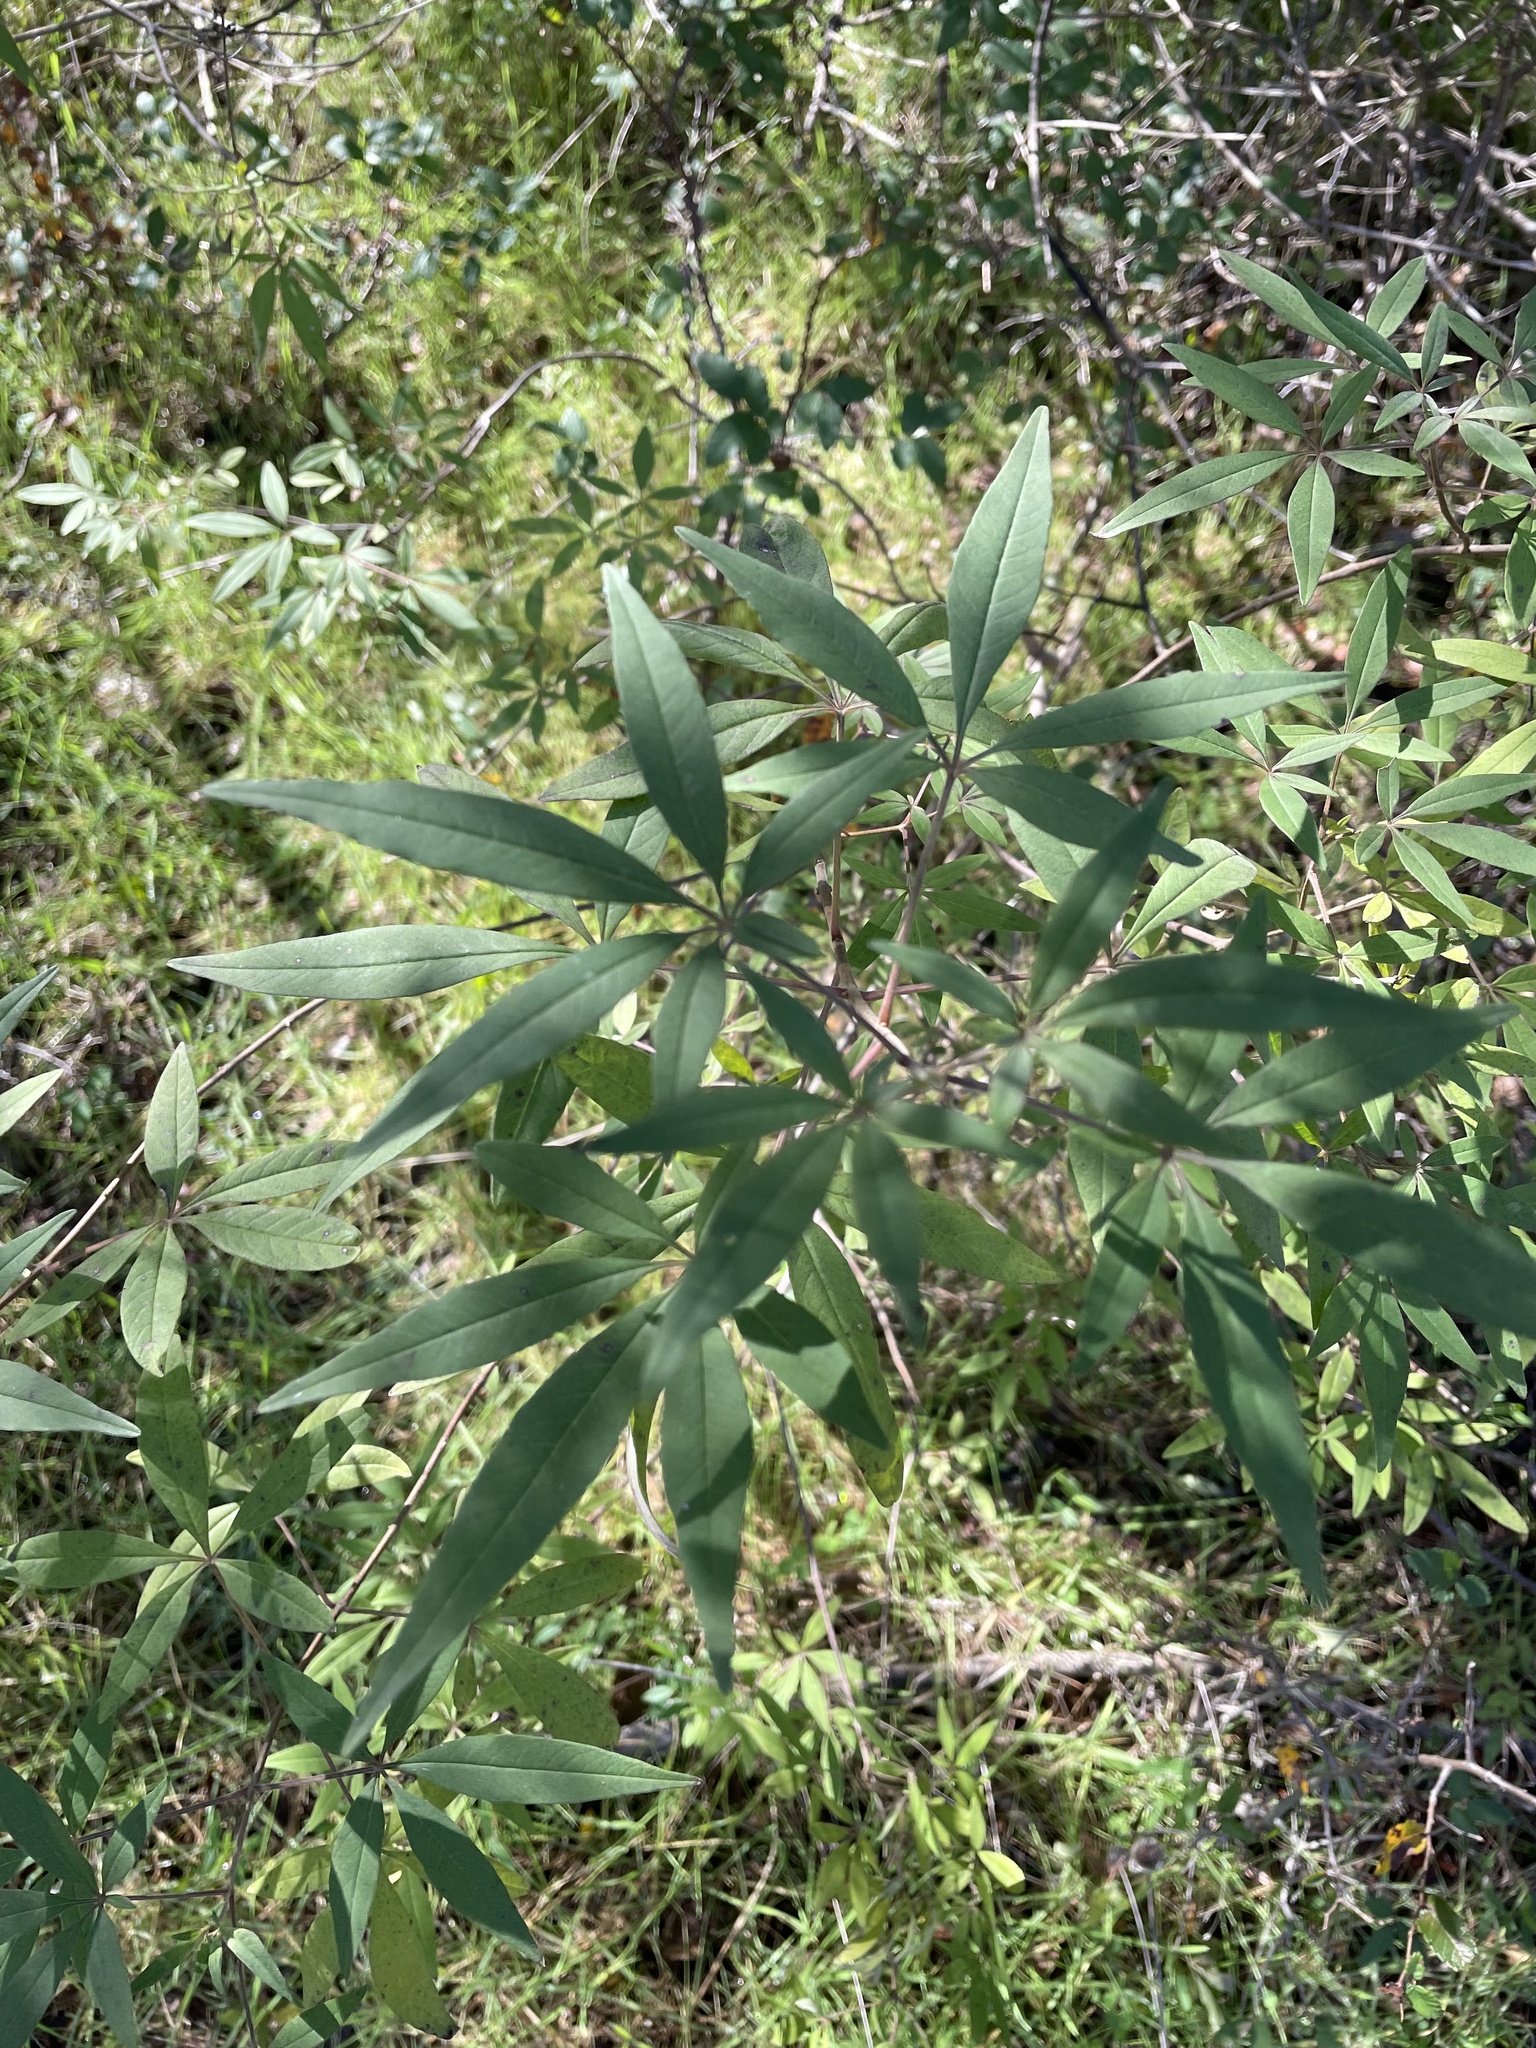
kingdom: Plantae
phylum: Tracheophyta
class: Magnoliopsida
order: Lamiales
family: Lamiaceae
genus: Vitex
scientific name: Vitex agnus-castus
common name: Chasteberry
